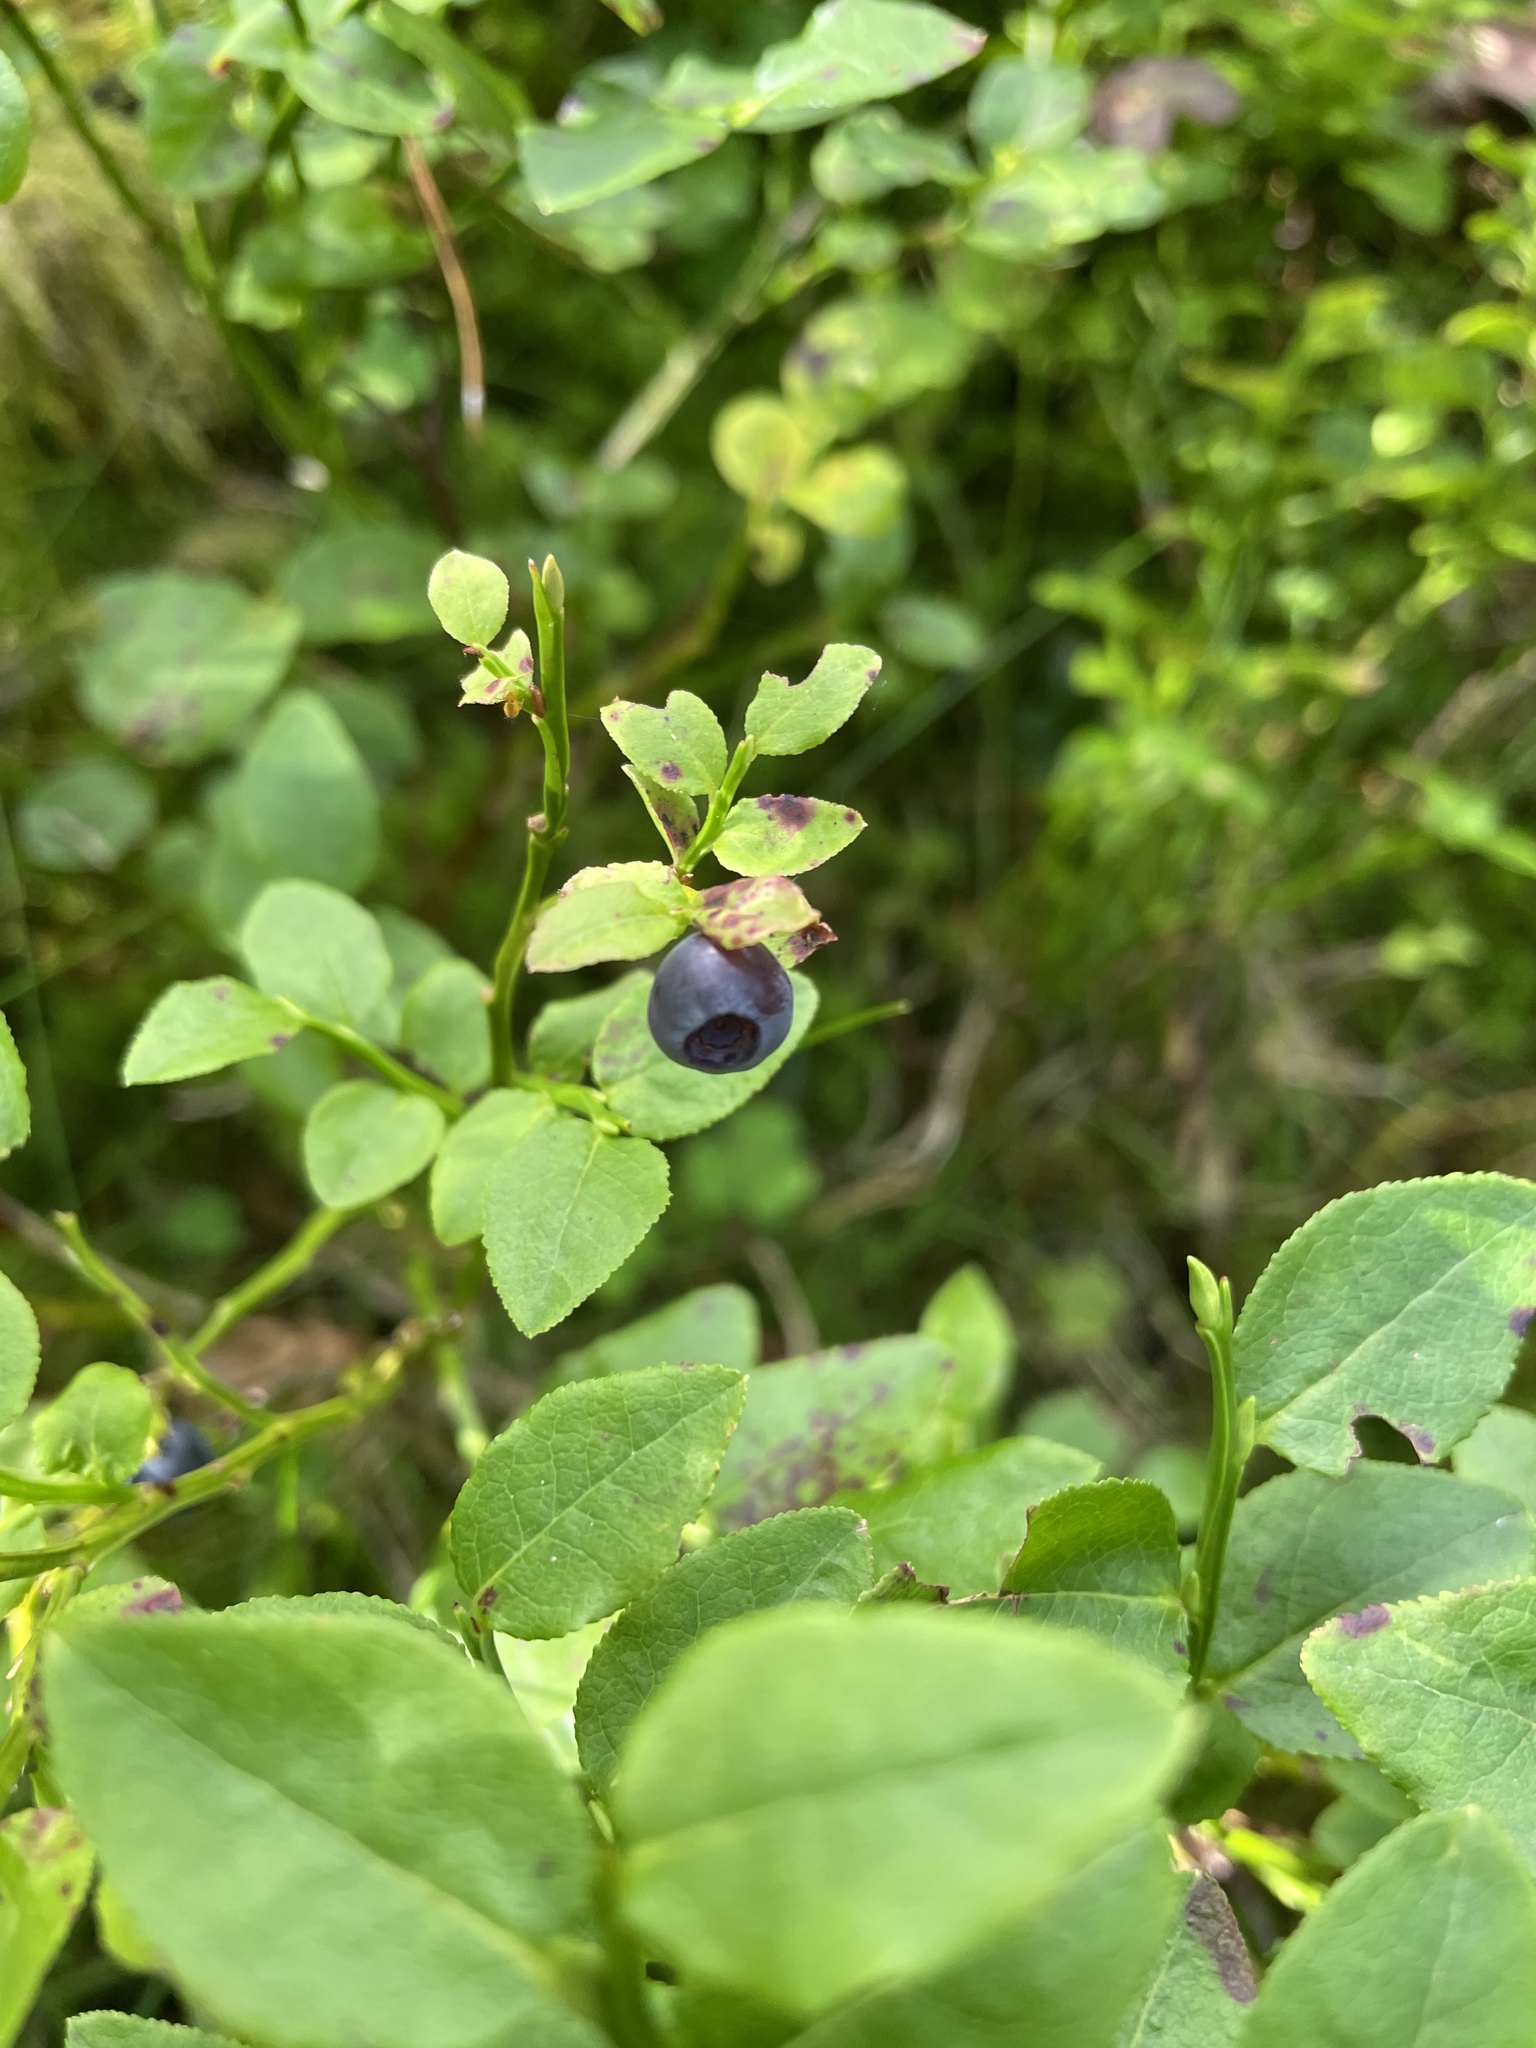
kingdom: Plantae
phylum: Tracheophyta
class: Magnoliopsida
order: Ericales
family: Ericaceae
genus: Vaccinium
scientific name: Vaccinium myrtillus
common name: Bilberry
